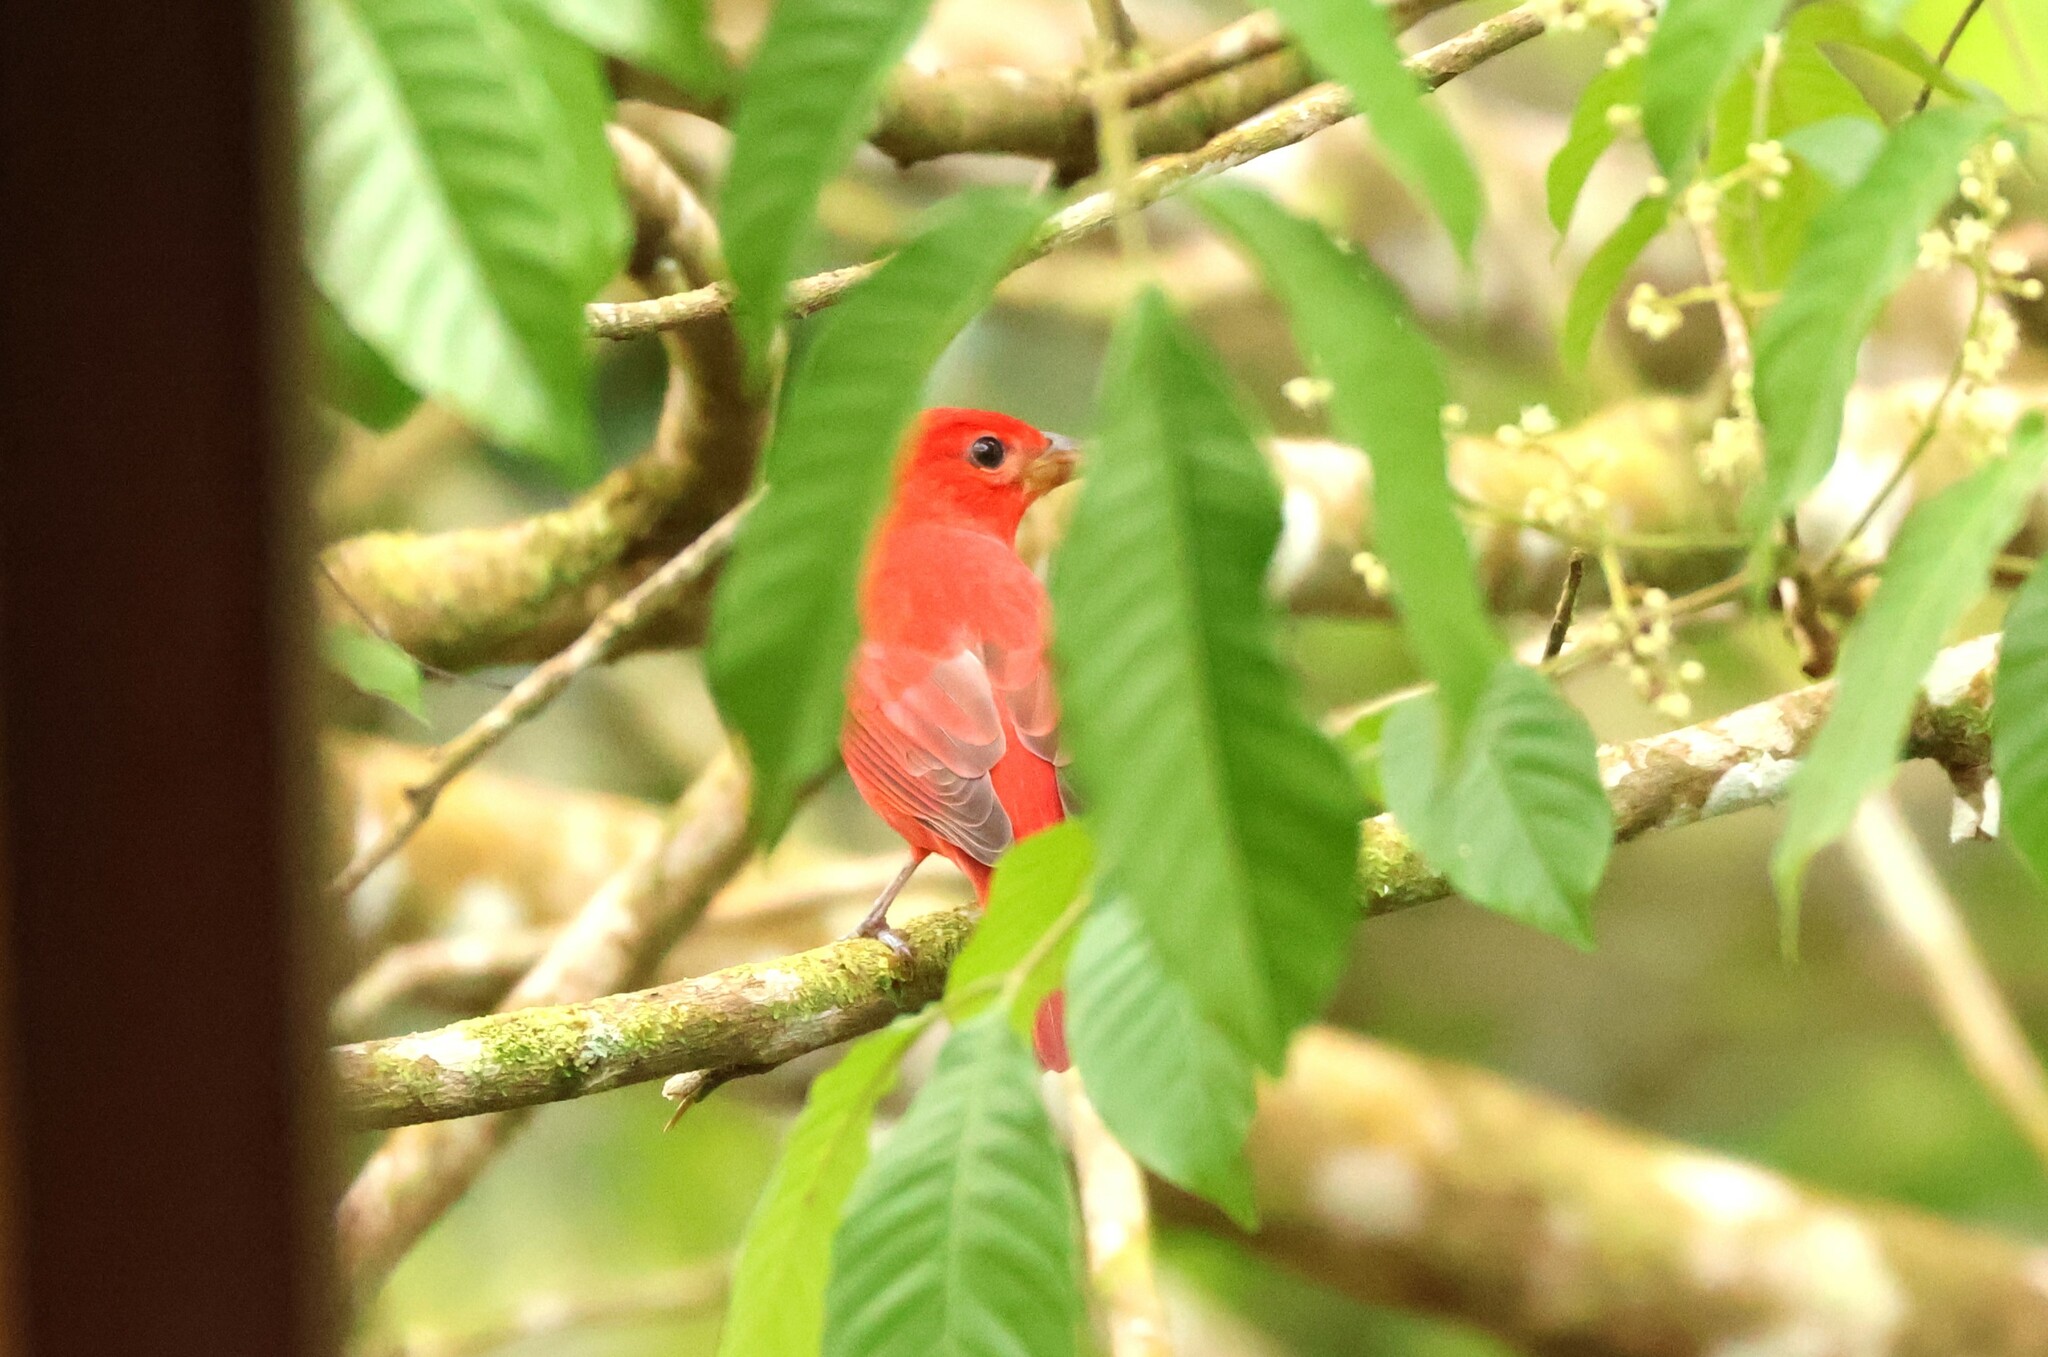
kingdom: Animalia
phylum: Chordata
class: Aves
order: Passeriformes
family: Cardinalidae
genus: Piranga
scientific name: Piranga rubra
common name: Summer tanager
